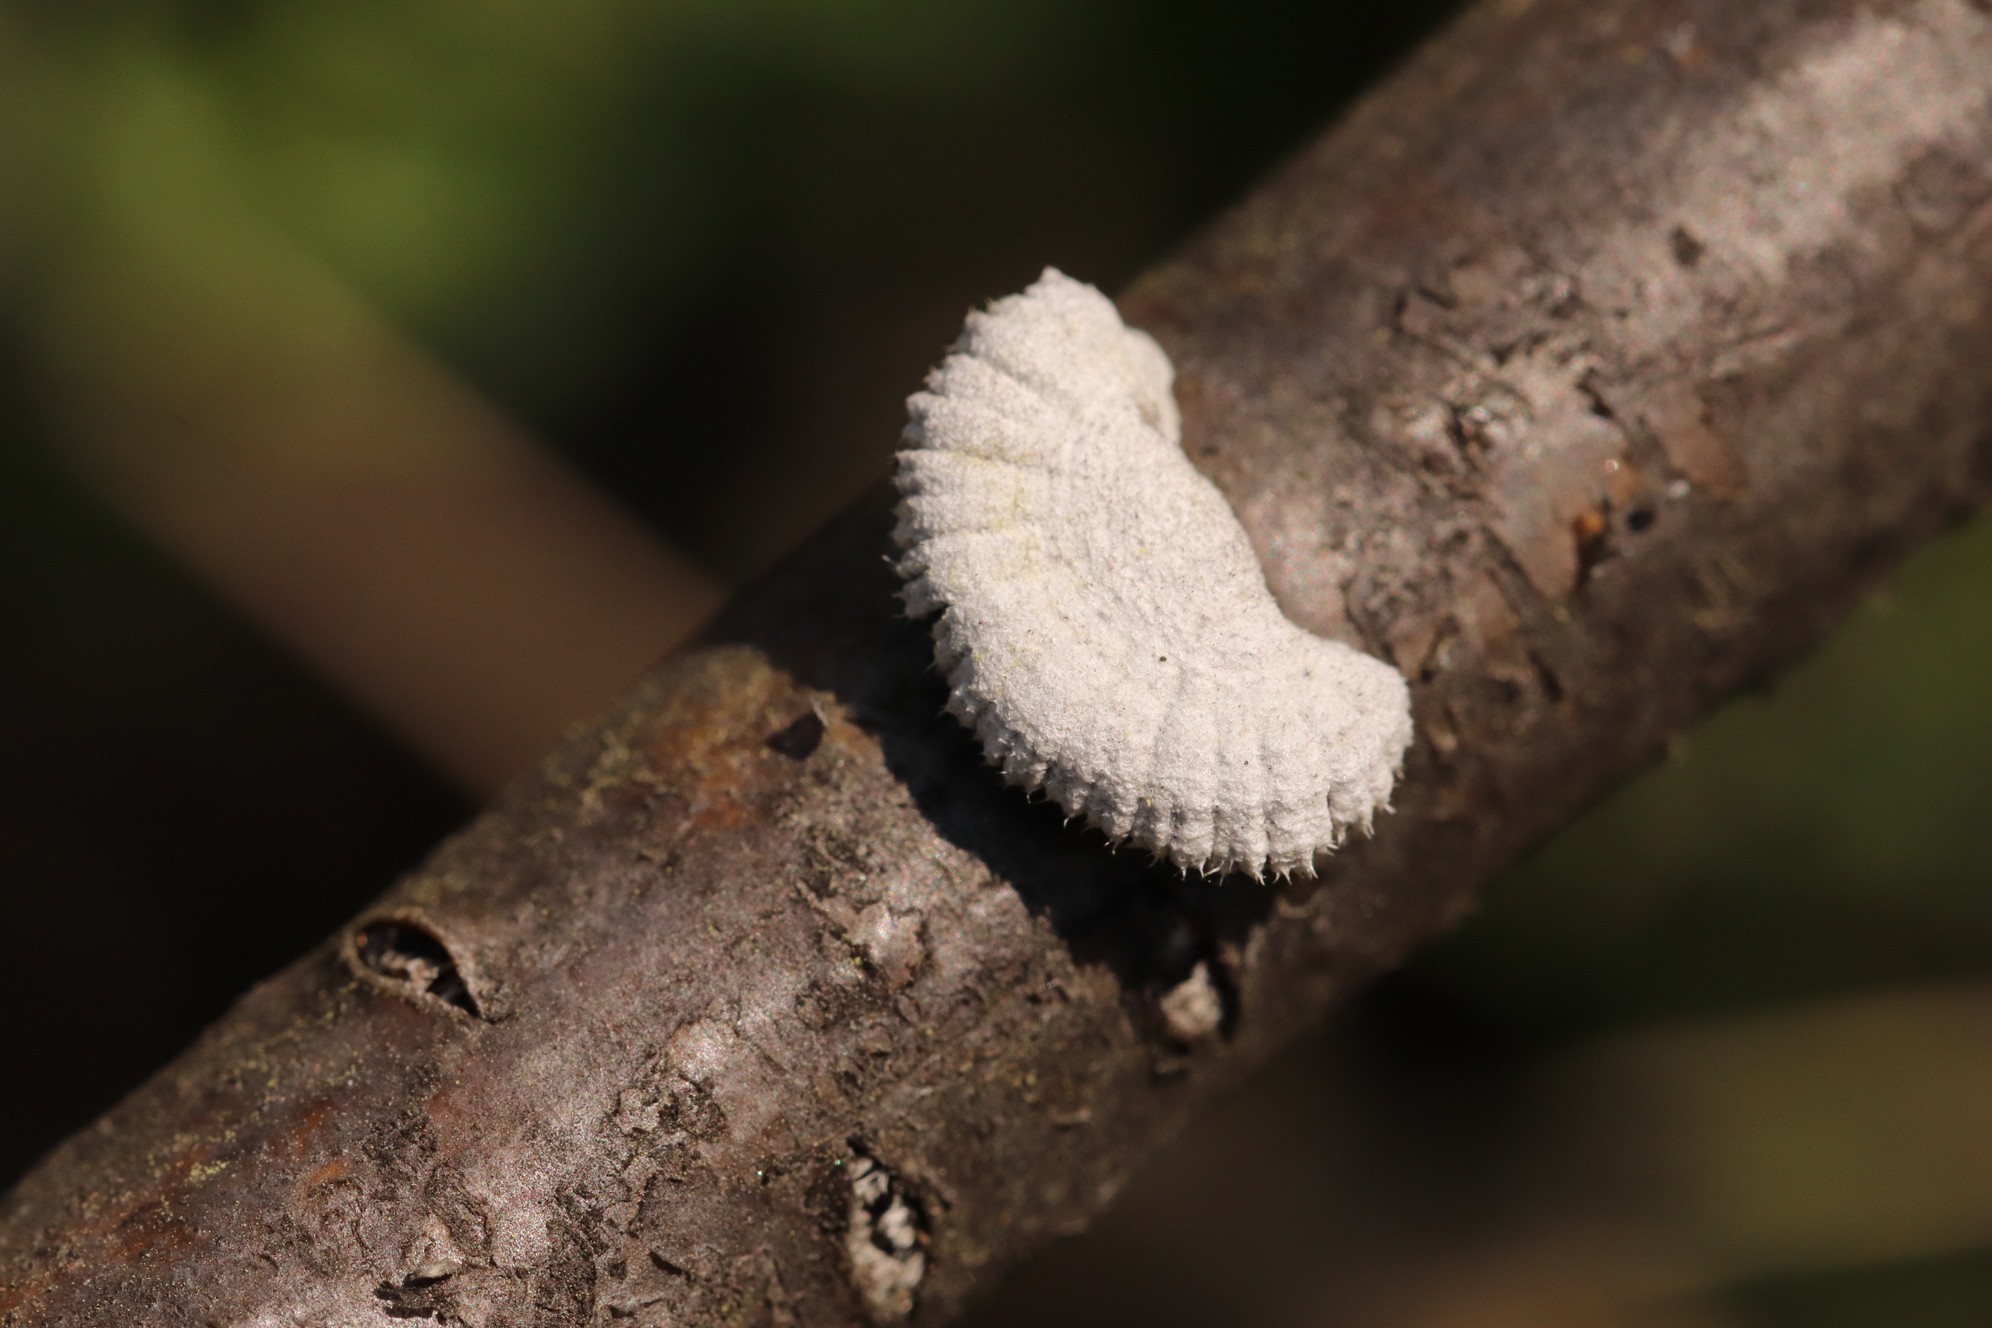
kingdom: Fungi
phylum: Basidiomycota
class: Agaricomycetes
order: Agaricales
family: Schizophyllaceae
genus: Schizophyllum
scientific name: Schizophyllum commune
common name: Common porecrust
